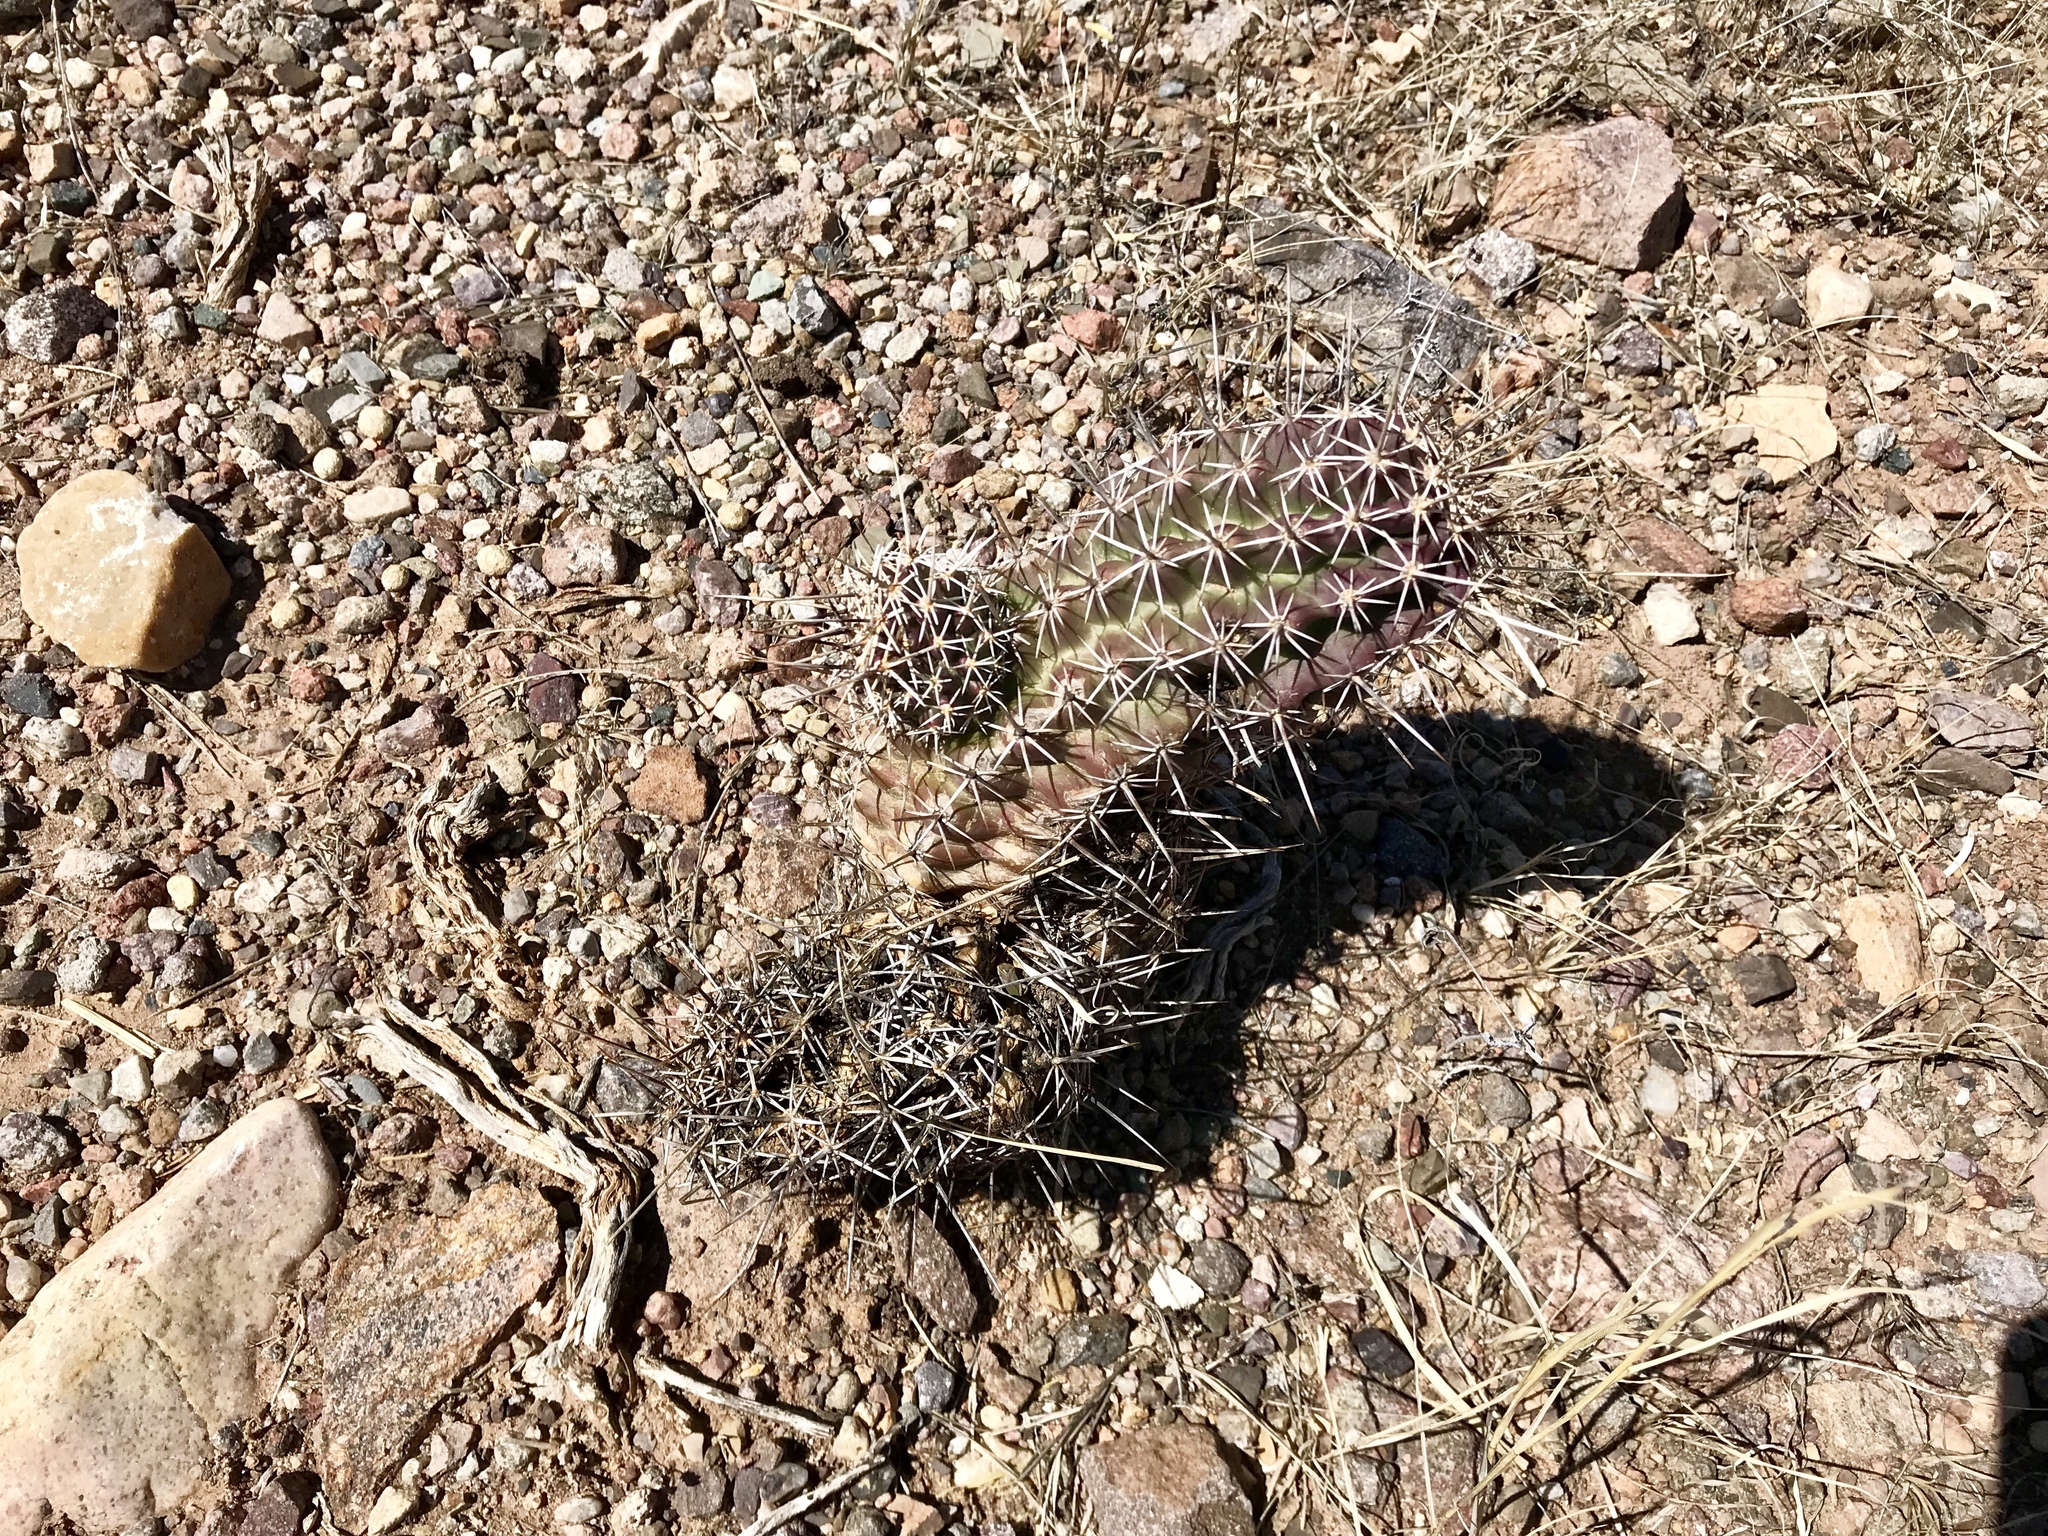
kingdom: Plantae
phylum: Tracheophyta
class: Magnoliopsida
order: Caryophyllales
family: Cactaceae
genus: Echinocereus
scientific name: Echinocereus fendleri
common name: Fendler's hedgehog cactus
